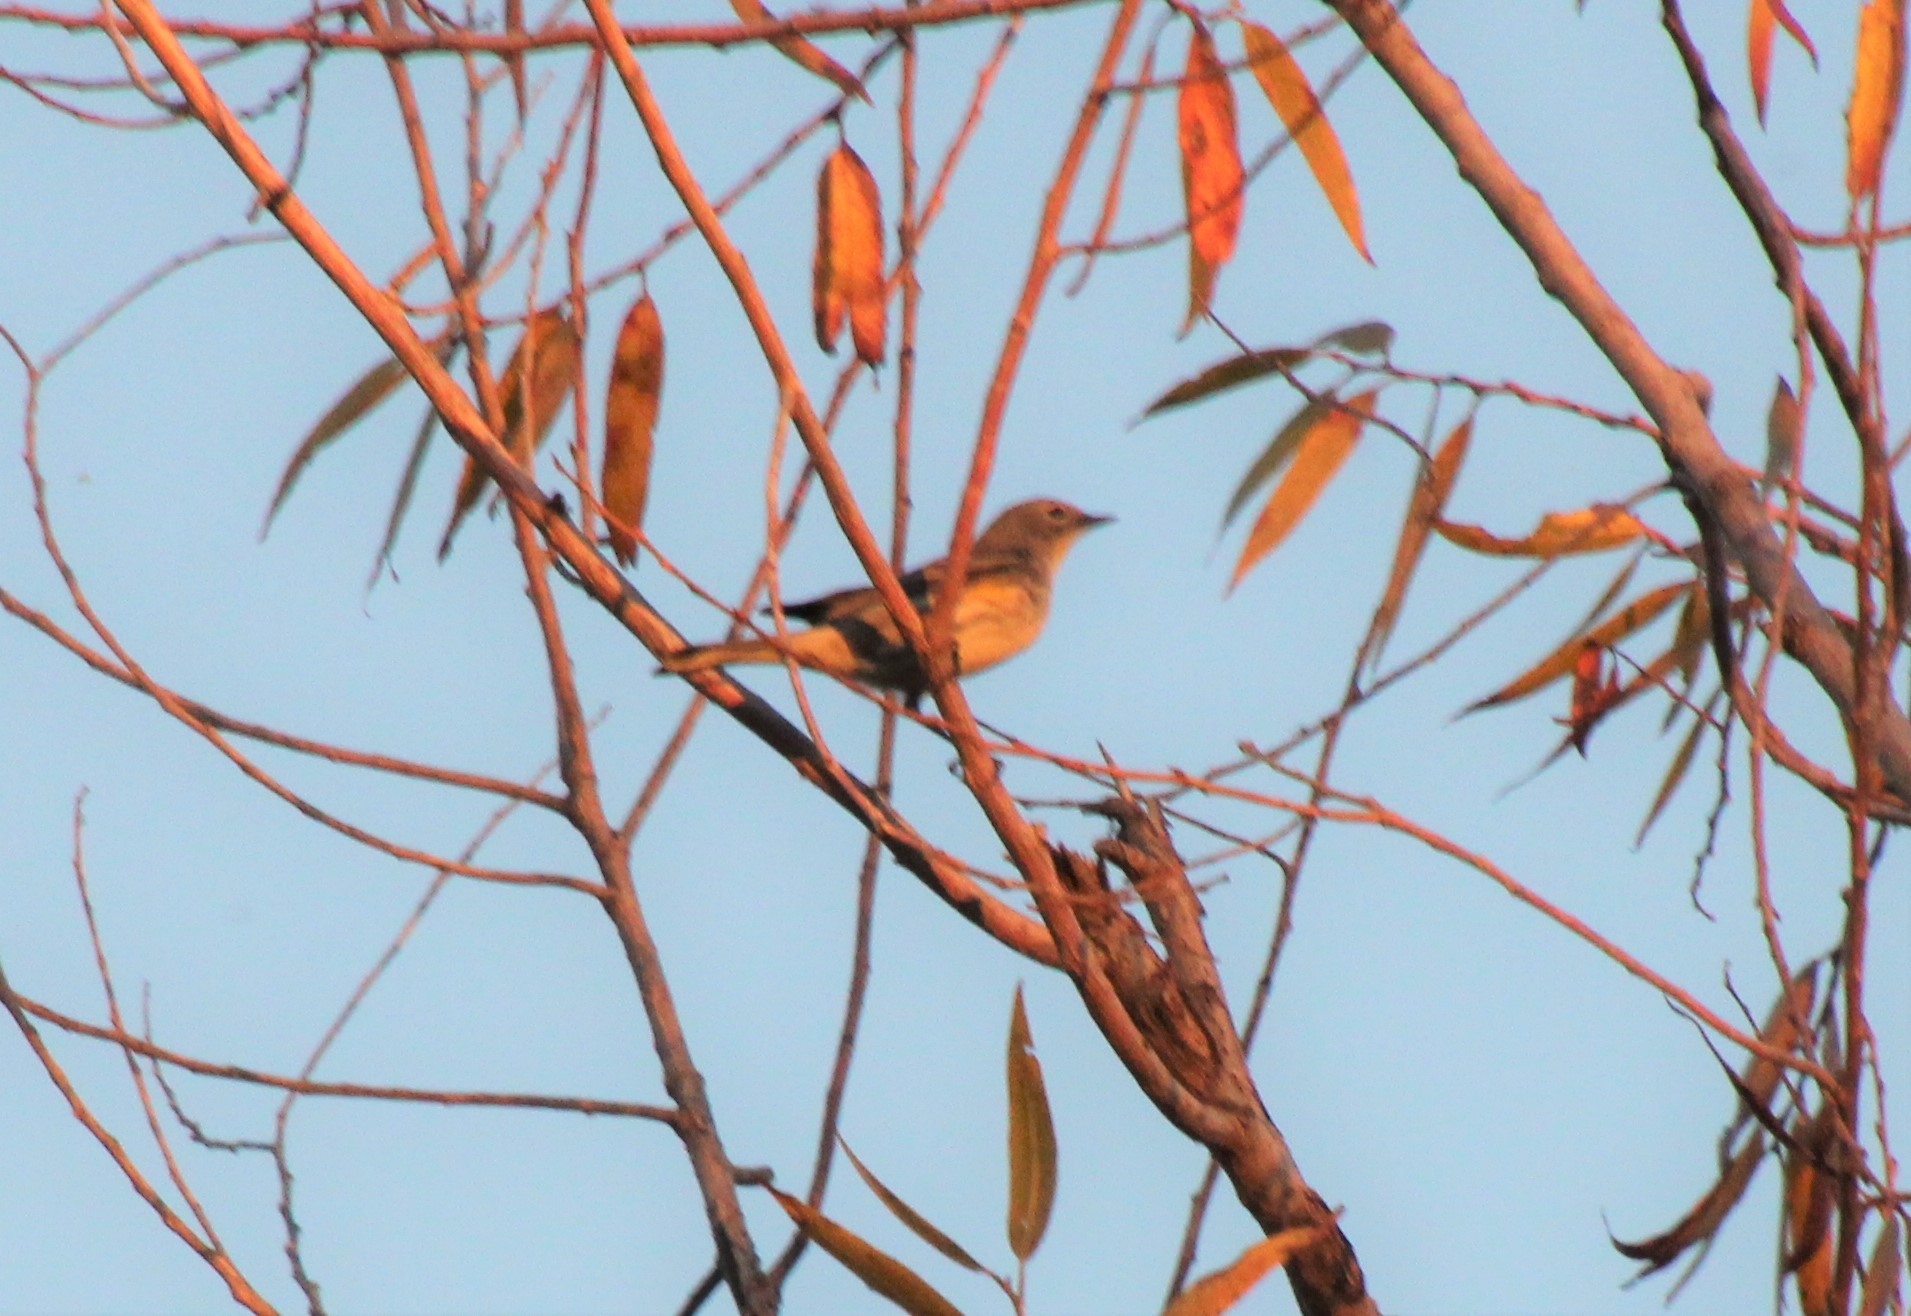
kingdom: Animalia
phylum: Chordata
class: Aves
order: Passeriformes
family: Parulidae
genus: Setophaga
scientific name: Setophaga auduboni
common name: Audubon's warbler
